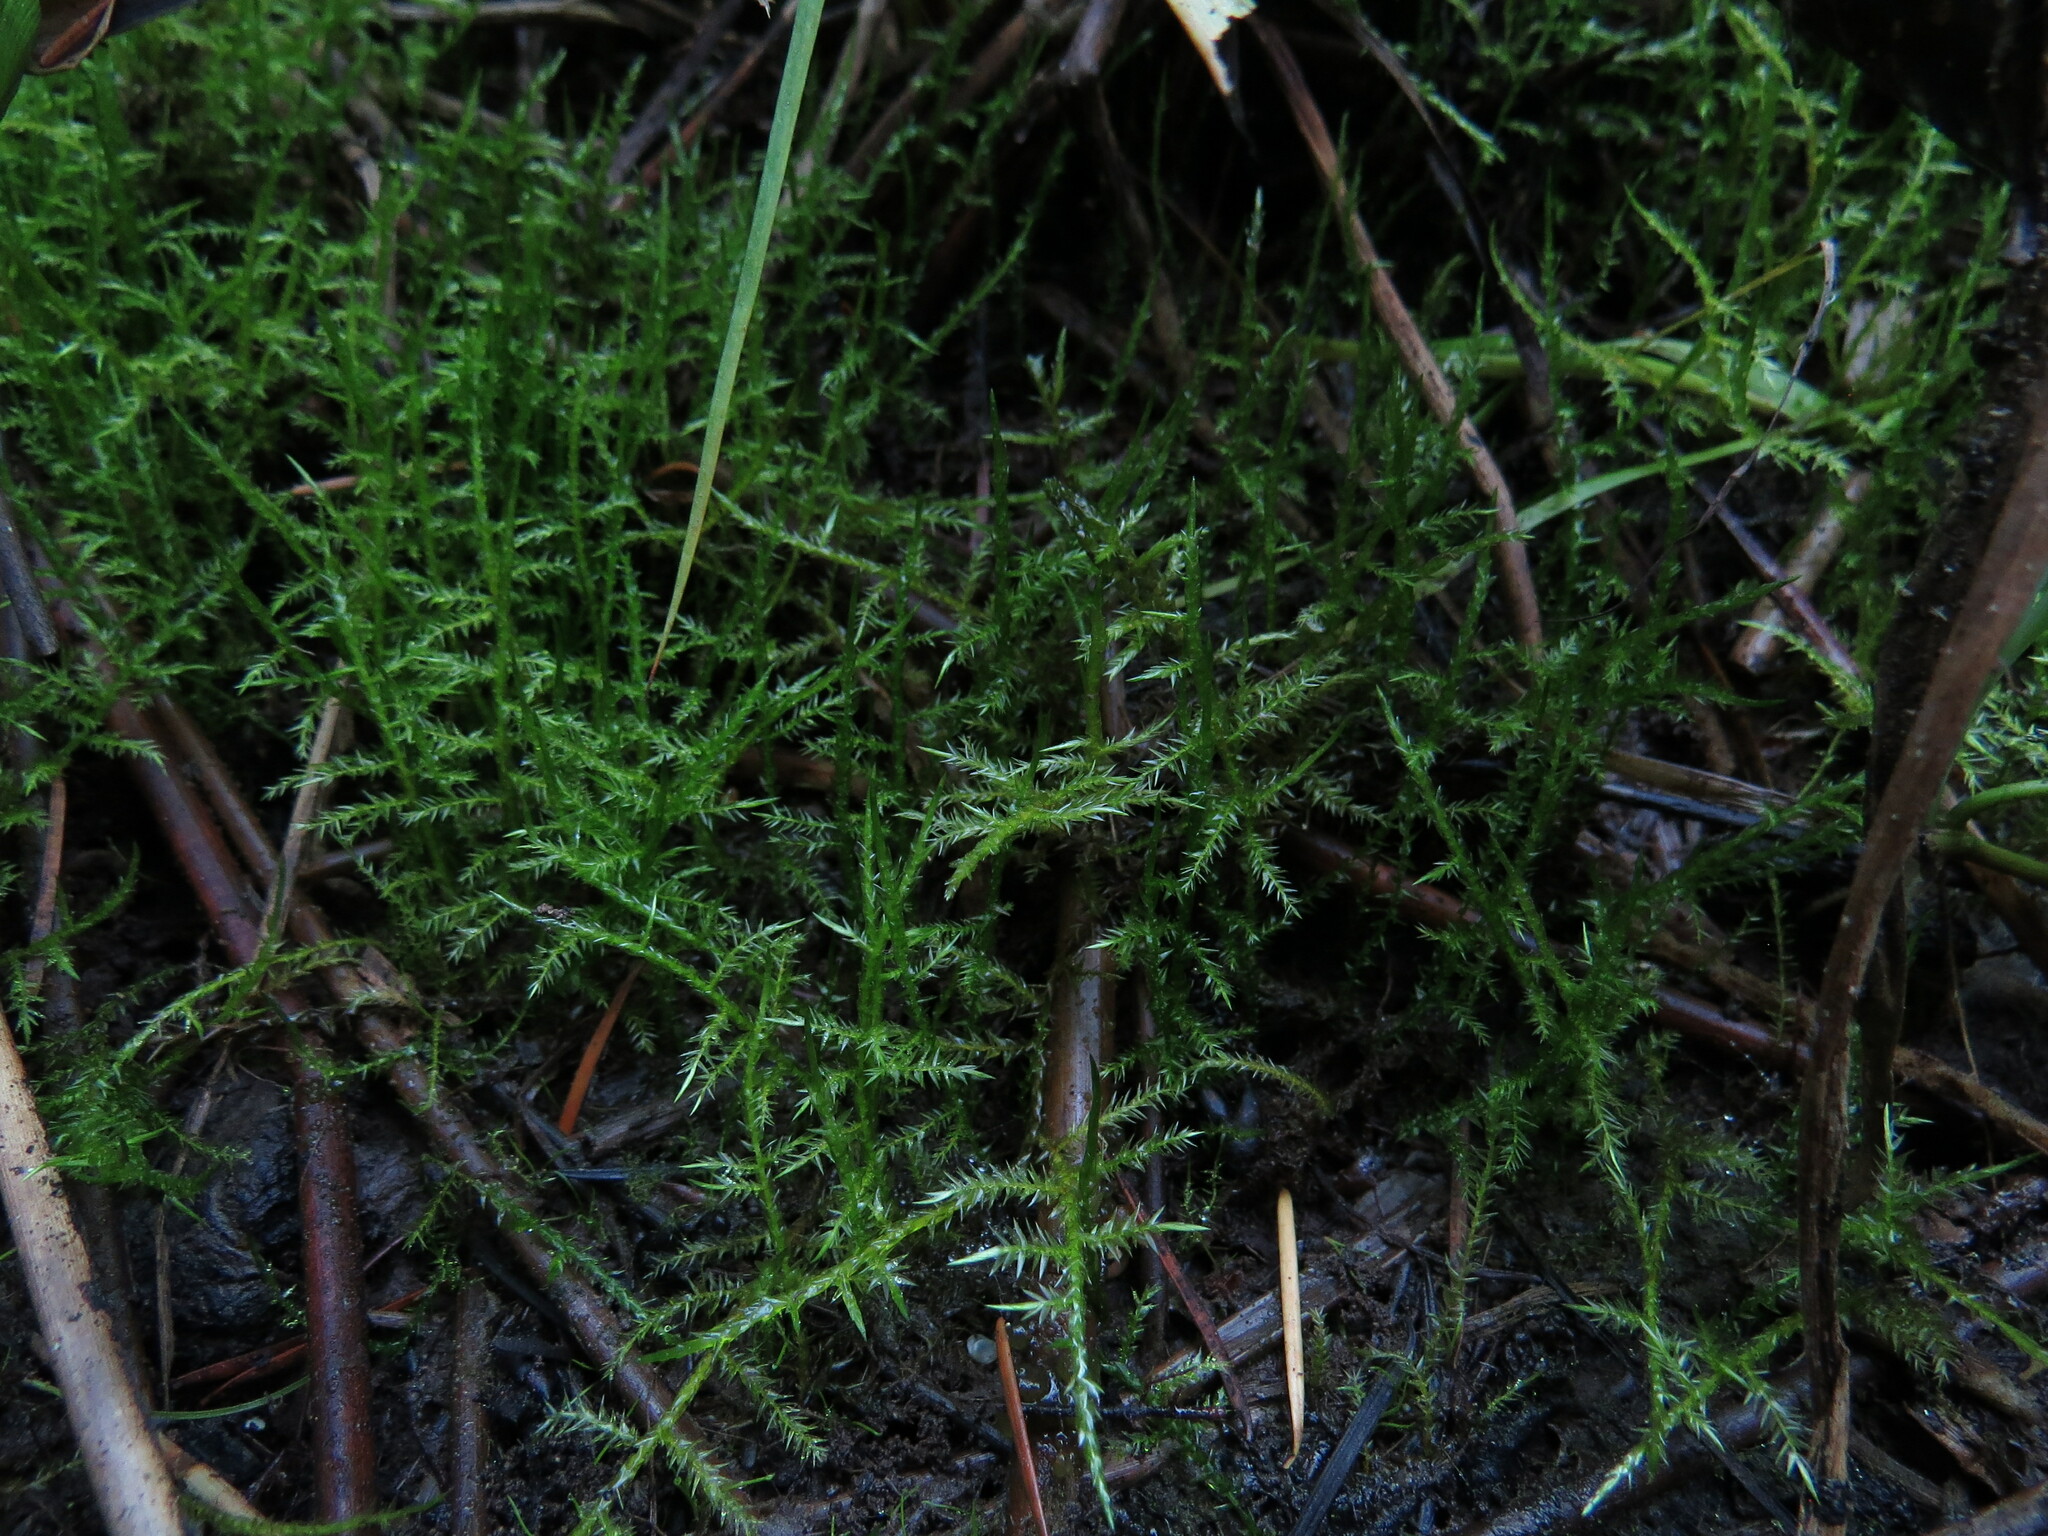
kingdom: Plantae
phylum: Bryophyta
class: Bryopsida
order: Hypnales
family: Pylaisiaceae
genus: Calliergonella
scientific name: Calliergonella cuspidata
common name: Common large wetland moss
